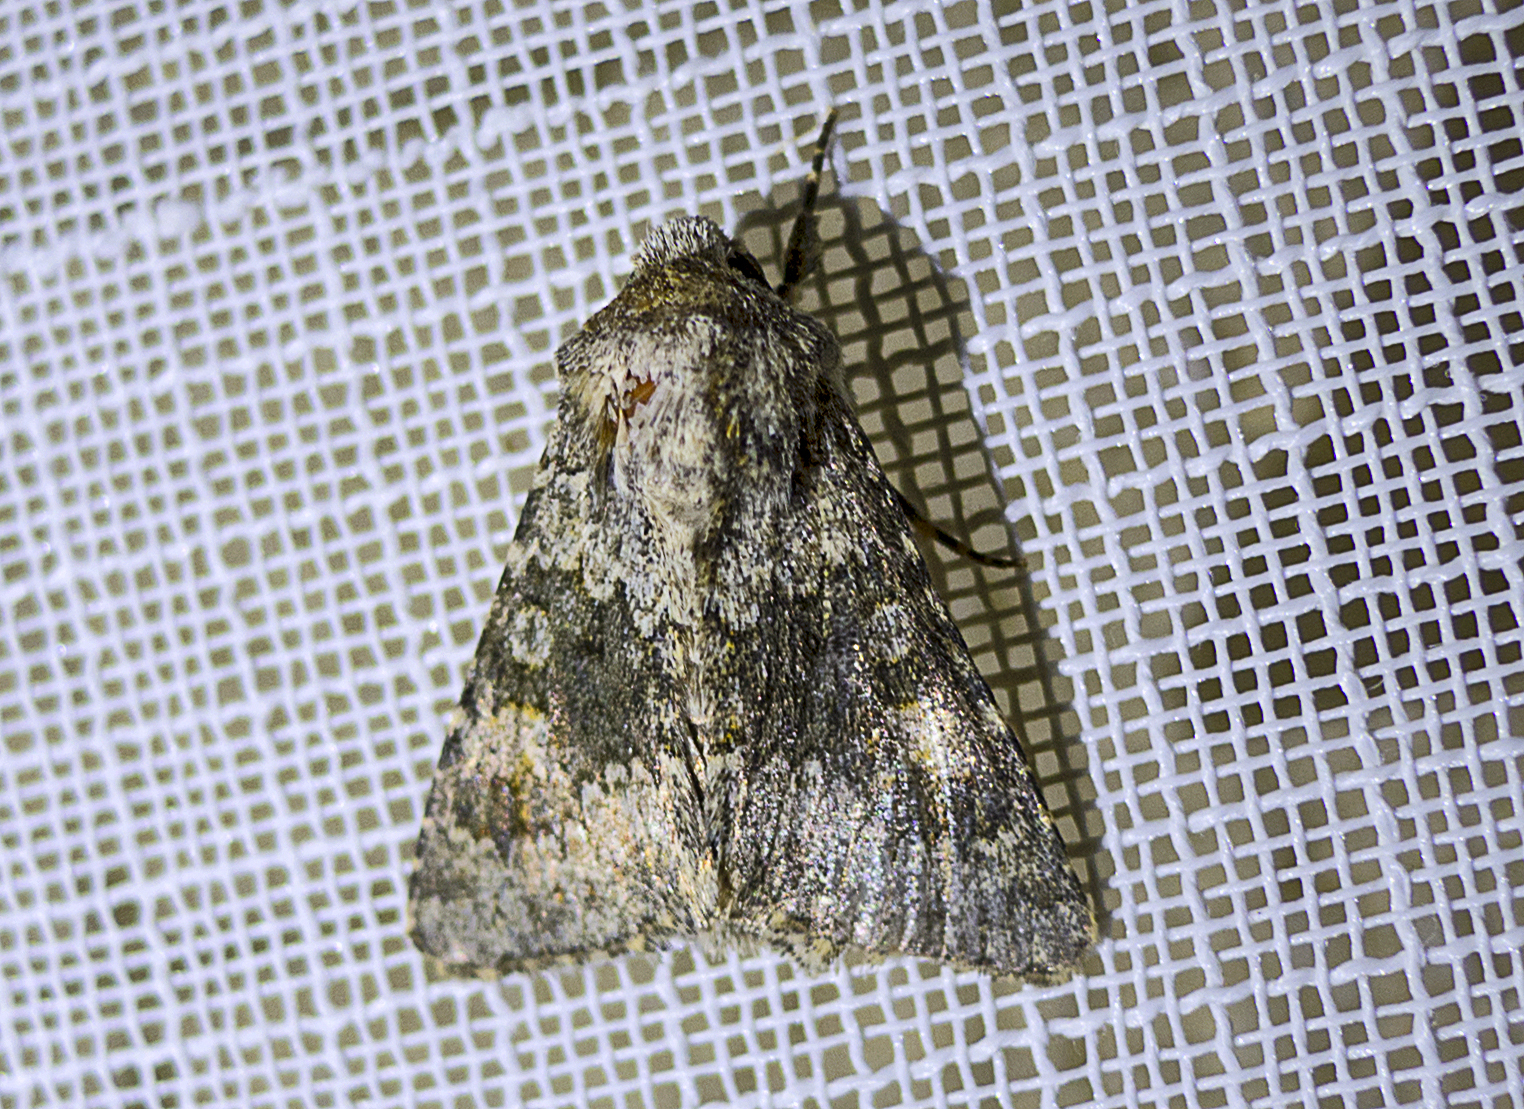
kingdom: Animalia
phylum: Arthropoda
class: Insecta
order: Lepidoptera
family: Noctuidae
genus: Hecatera
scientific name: Hecatera dysodea
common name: Small ranunculus
